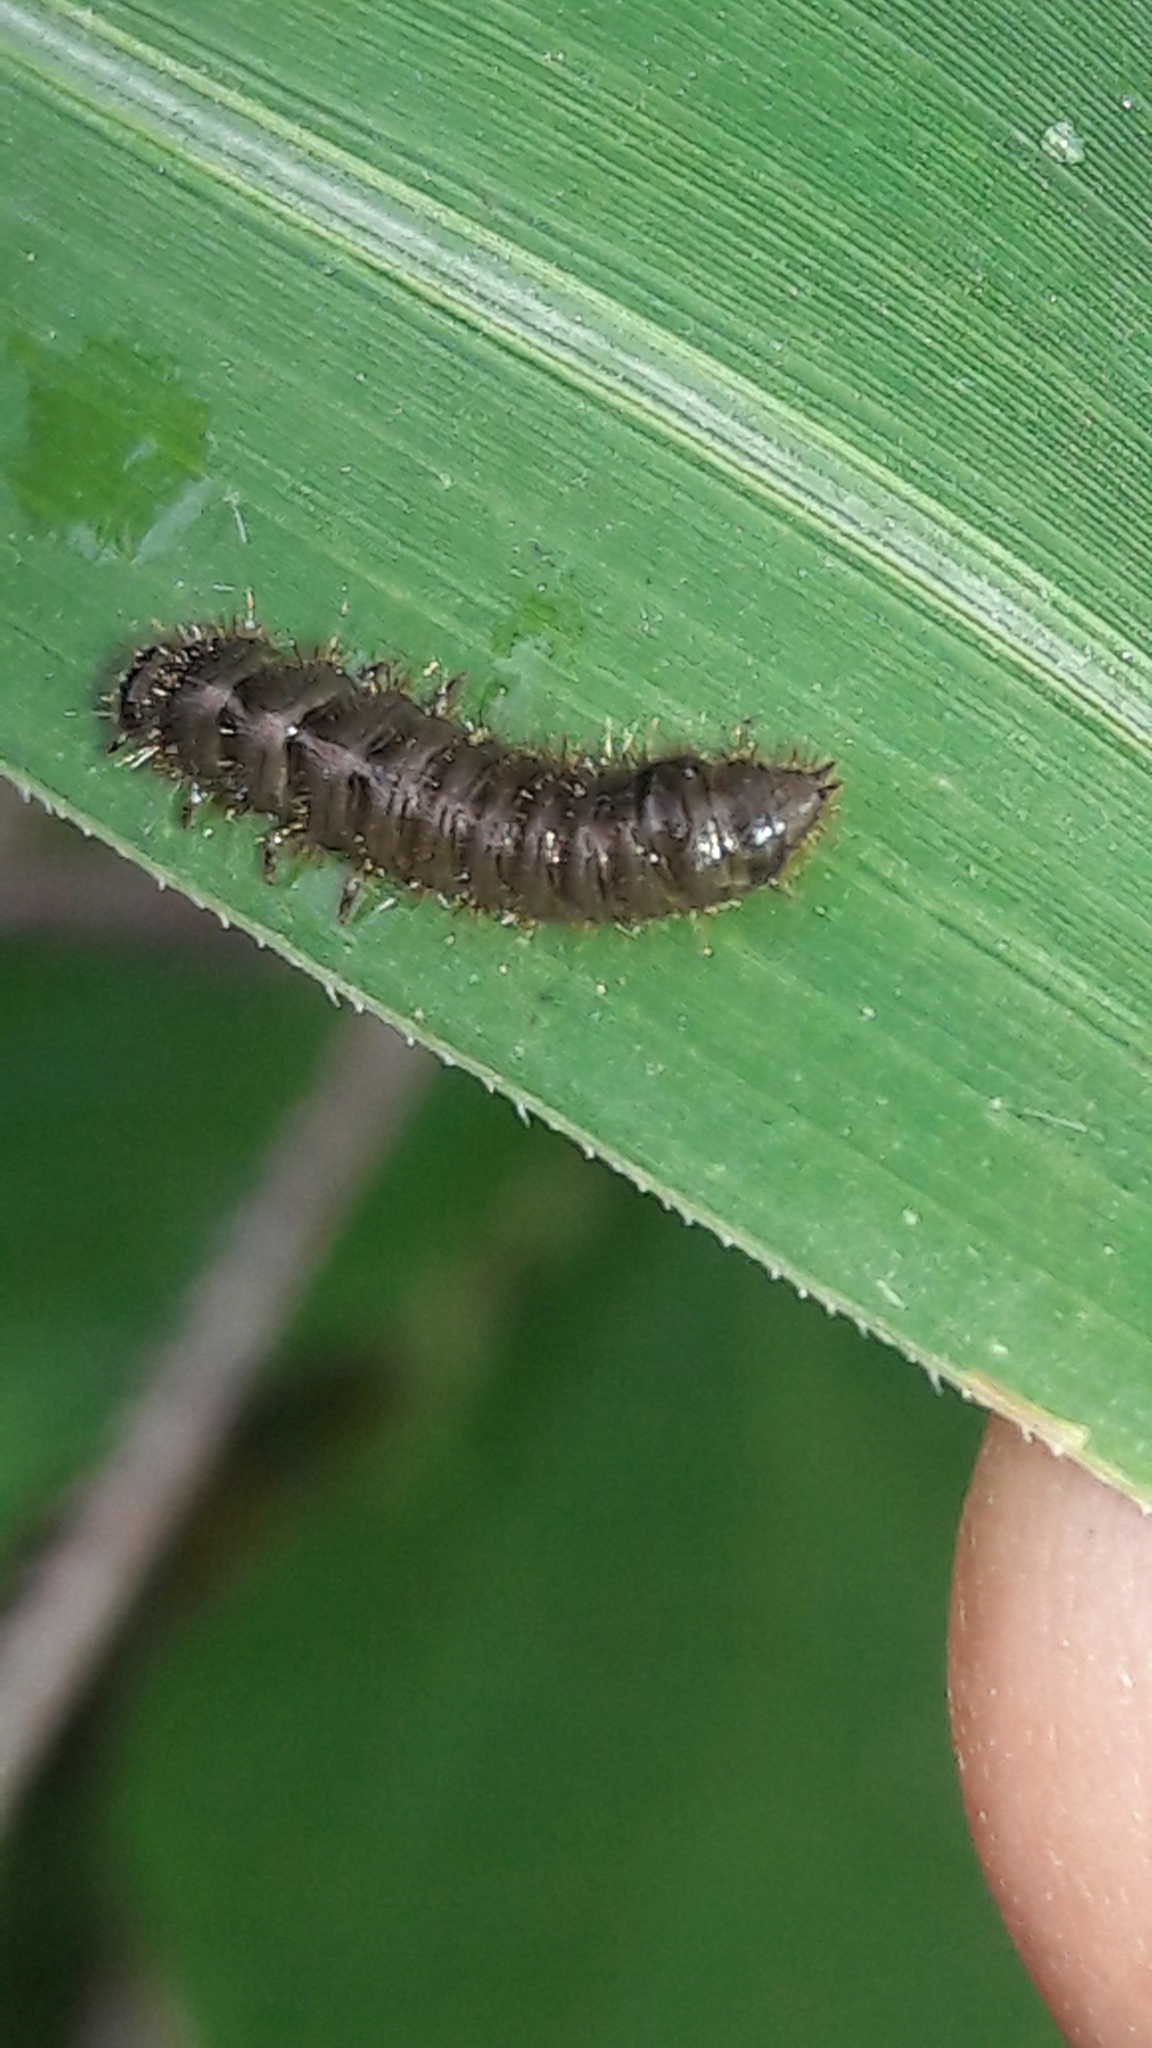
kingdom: Animalia
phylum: Arthropoda
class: Insecta
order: Coleoptera
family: Tenebrionidae
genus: Lagria
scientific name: Lagria villosa
